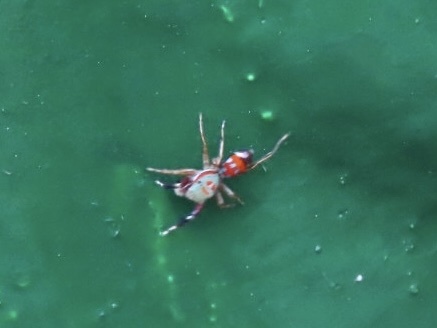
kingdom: Animalia
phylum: Arthropoda
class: Arachnida
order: Araneae
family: Salticidae
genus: Siler
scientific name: Siler collingwoodi
